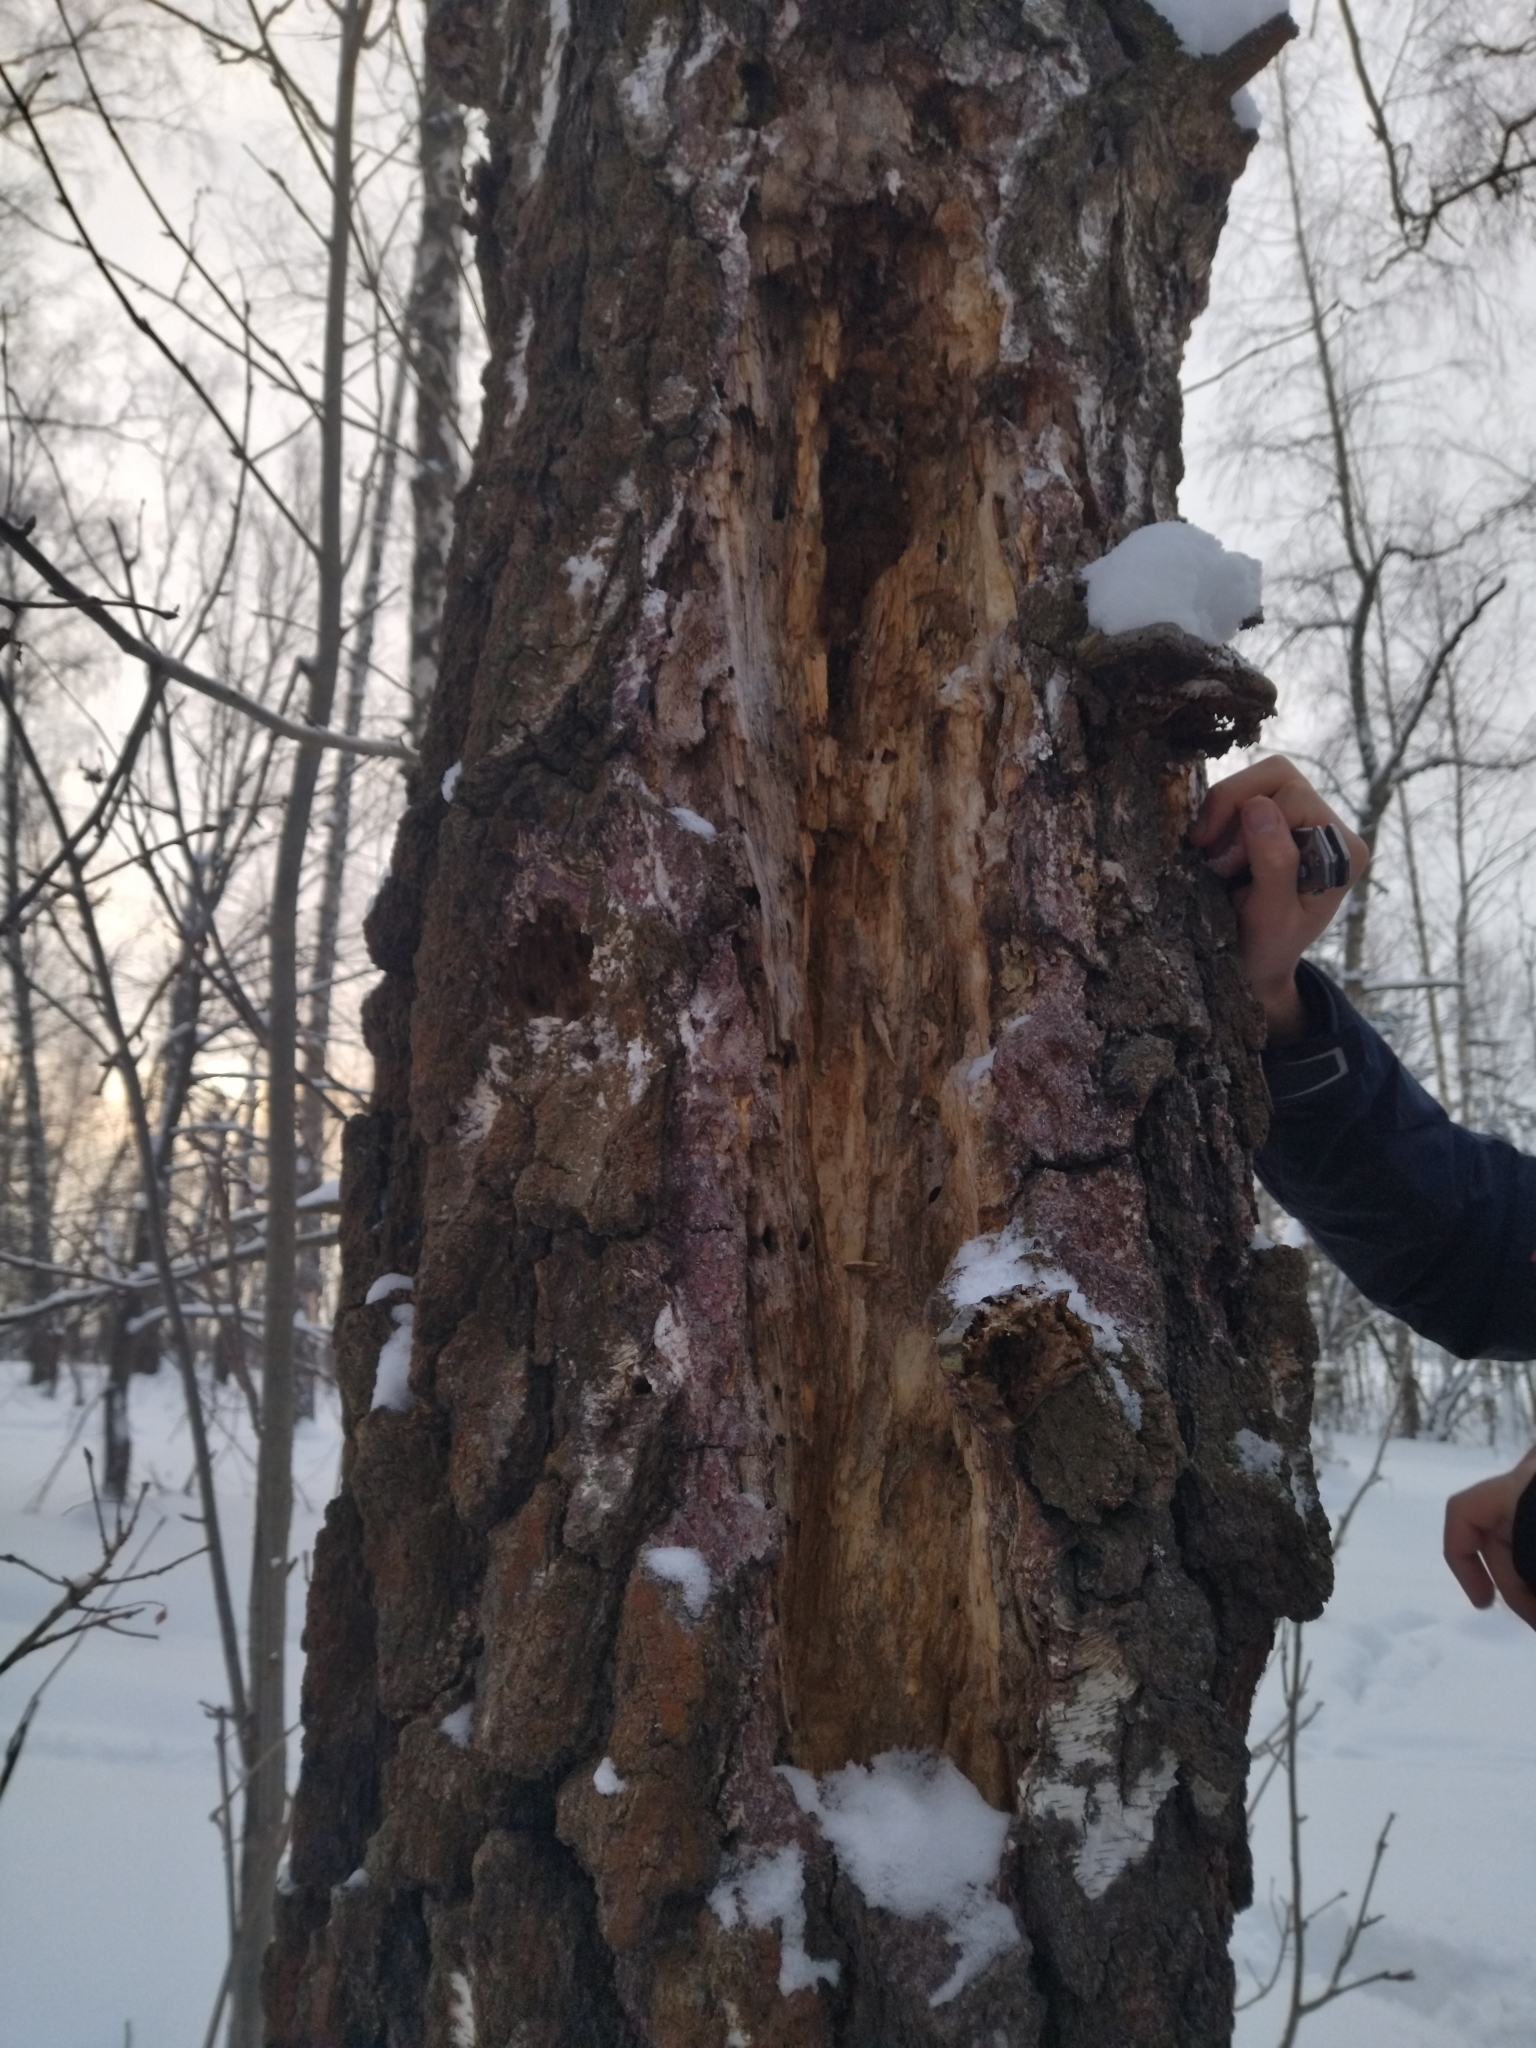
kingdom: Animalia
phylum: Chordata
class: Aves
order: Piciformes
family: Picidae
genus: Dryocopus
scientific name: Dryocopus martius
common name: Black woodpecker
